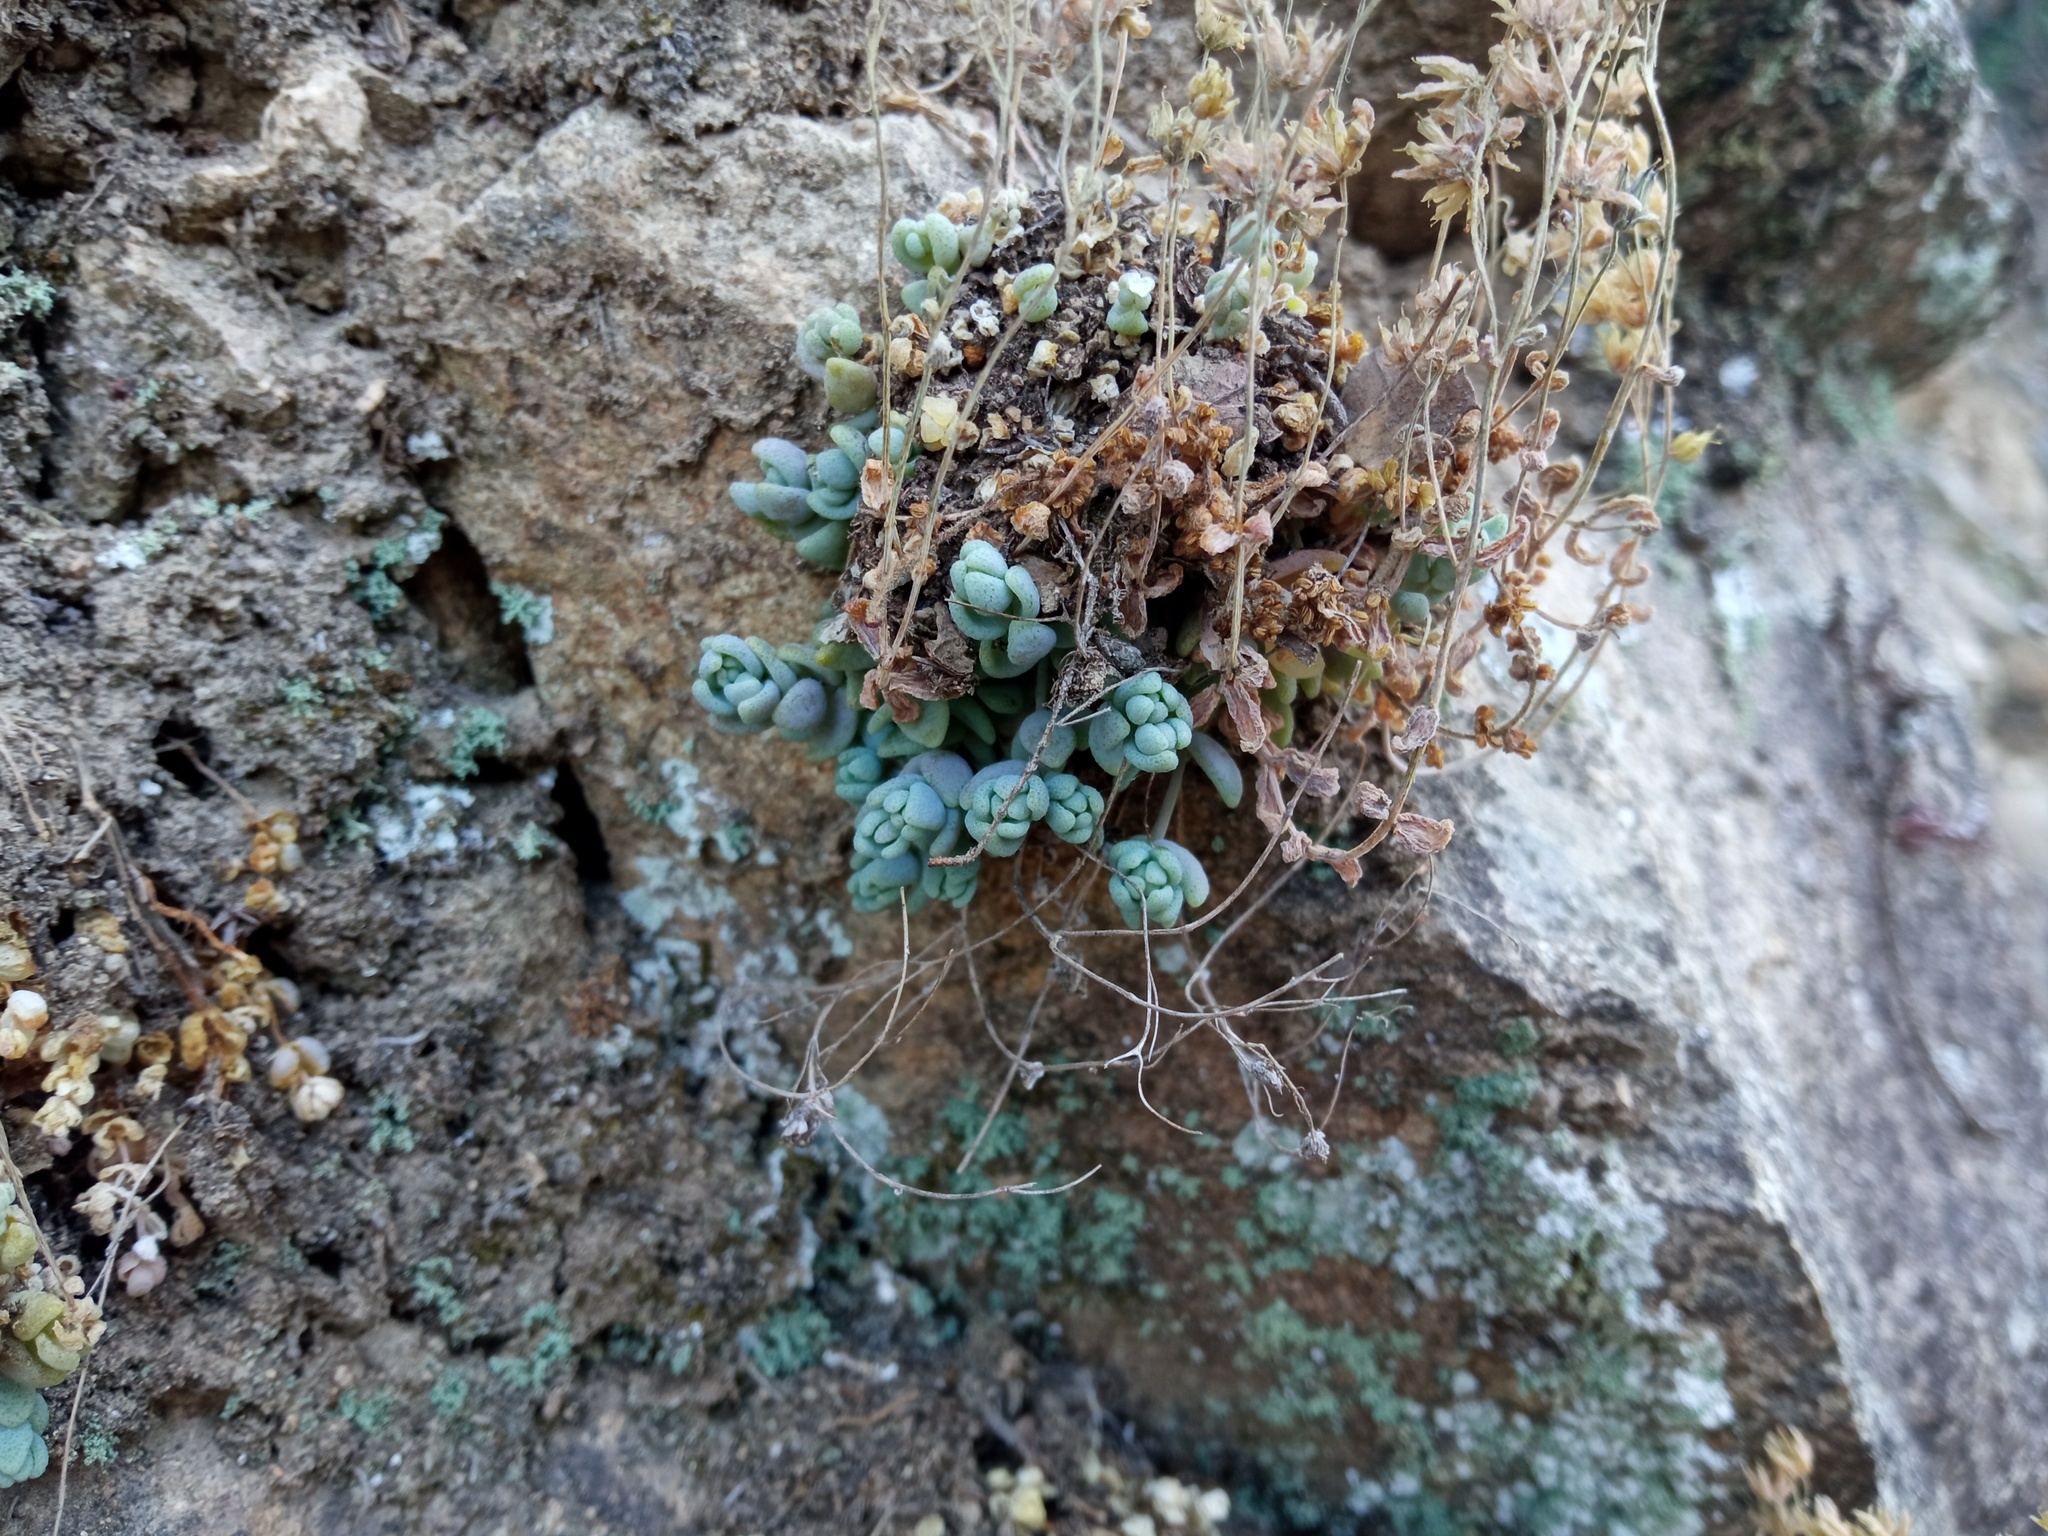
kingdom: Plantae
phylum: Tracheophyta
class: Magnoliopsida
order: Saxifragales
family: Crassulaceae
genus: Sedum
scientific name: Sedum dasyphyllum
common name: Thick-leaf stonecrop
